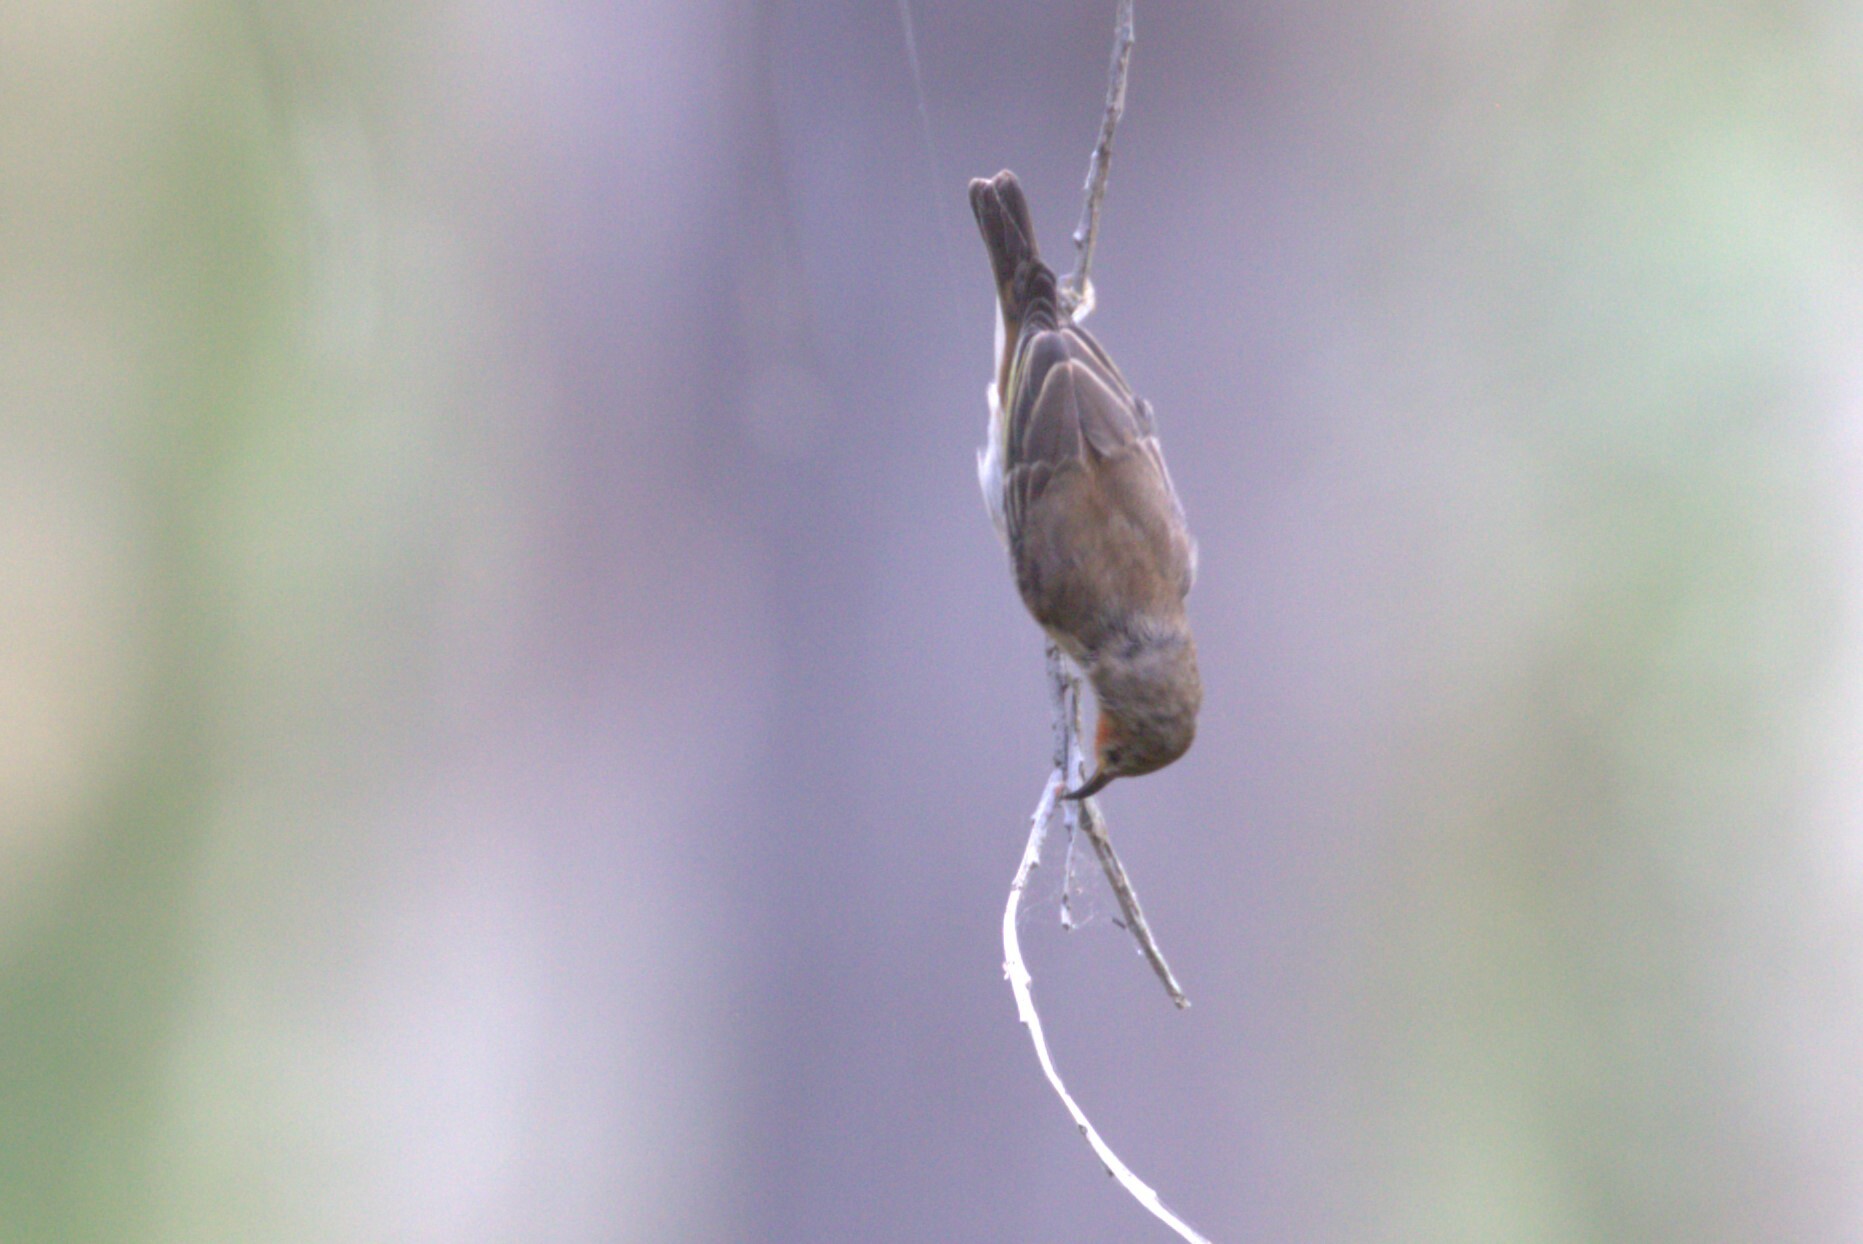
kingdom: Animalia
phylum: Chordata
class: Aves
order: Passeriformes
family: Meliphagidae
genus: Myzomela
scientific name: Myzomela sanguinolenta
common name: Scarlet myzomela
